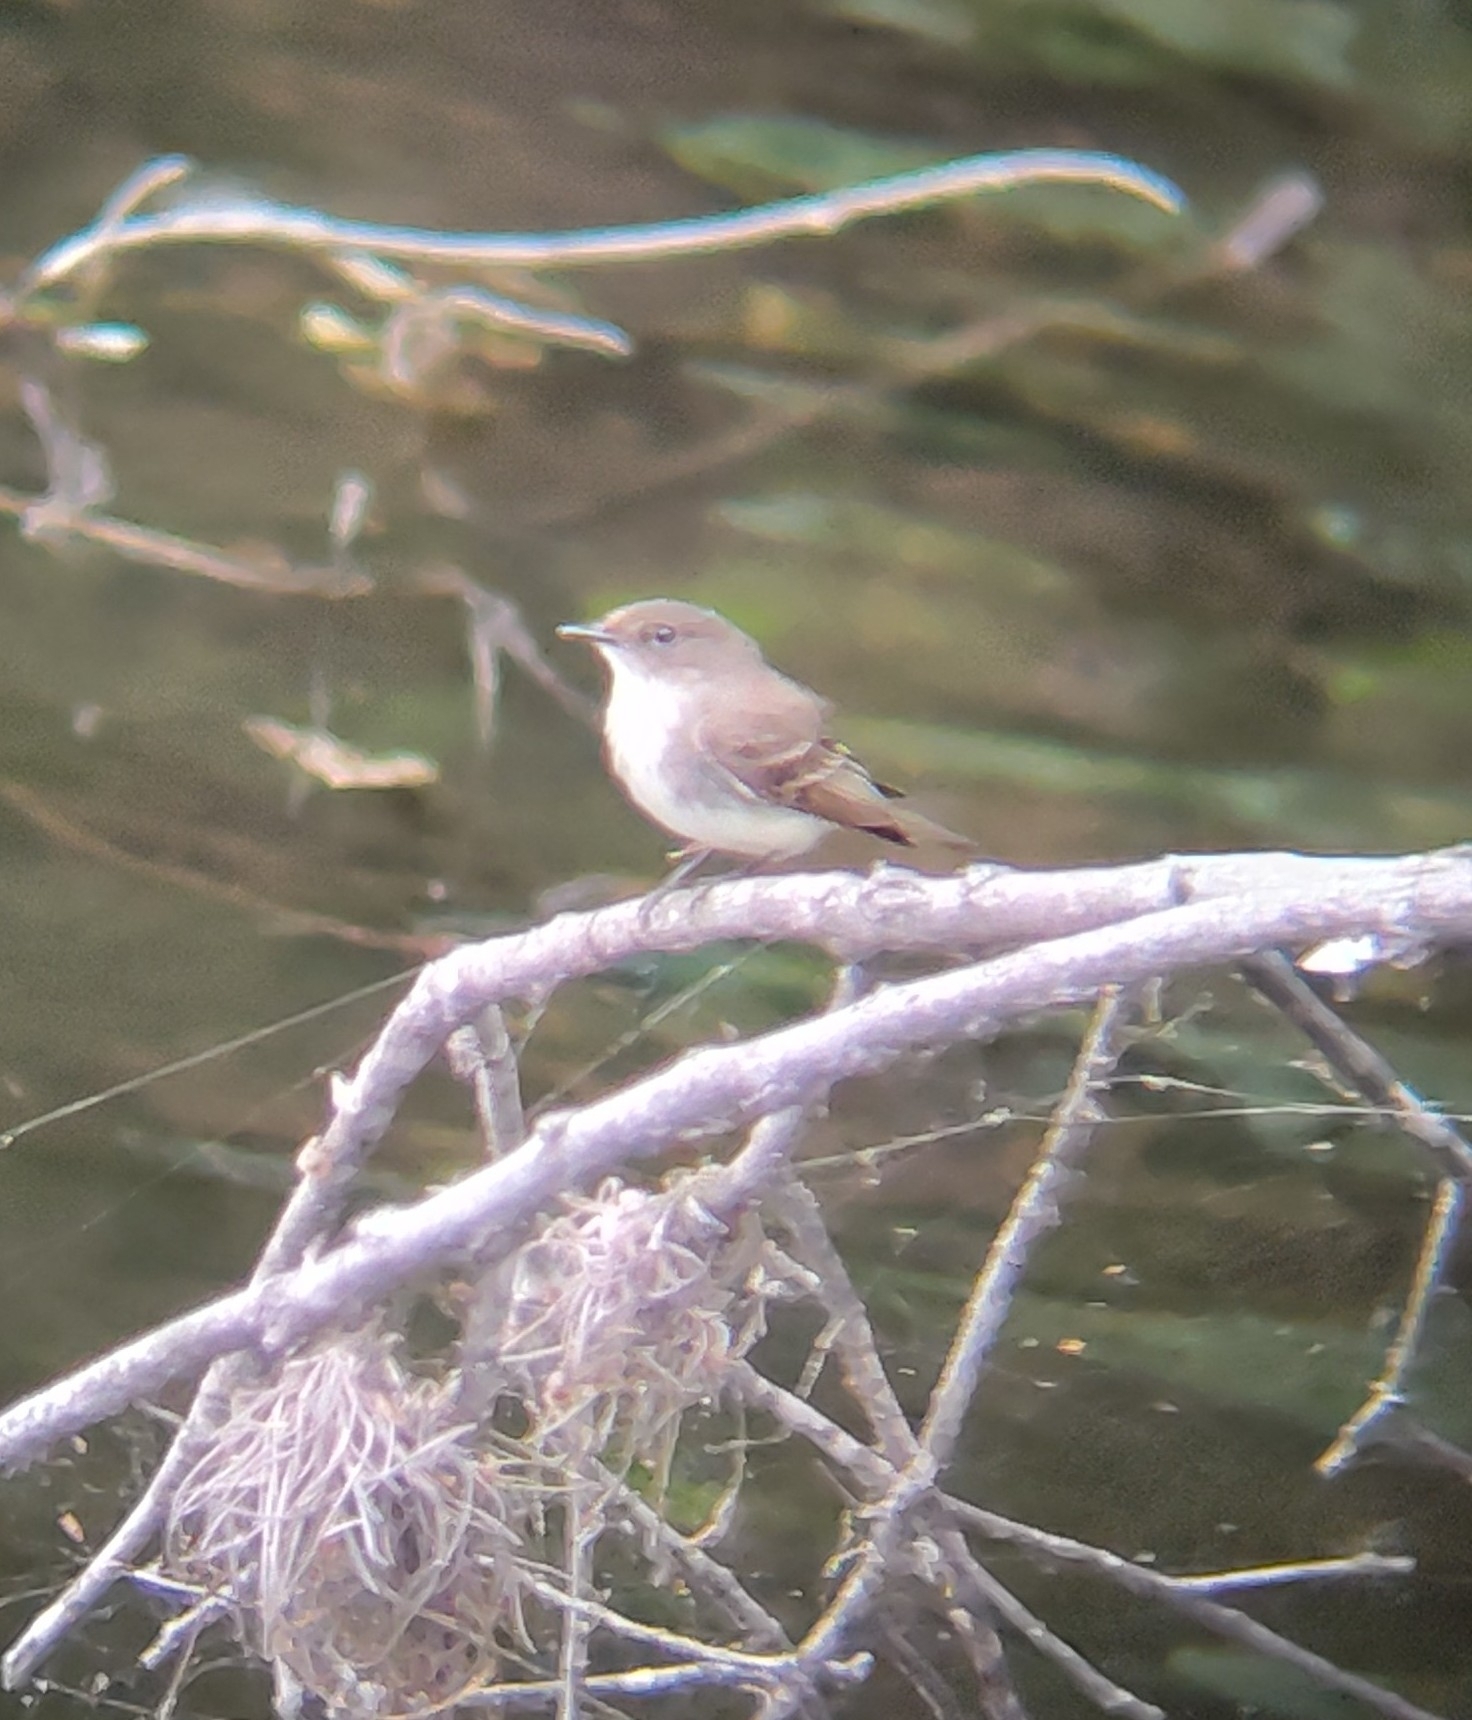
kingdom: Animalia
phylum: Chordata
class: Aves
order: Passeriformes
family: Tyrannidae
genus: Sayornis
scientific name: Sayornis phoebe
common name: Eastern phoebe
